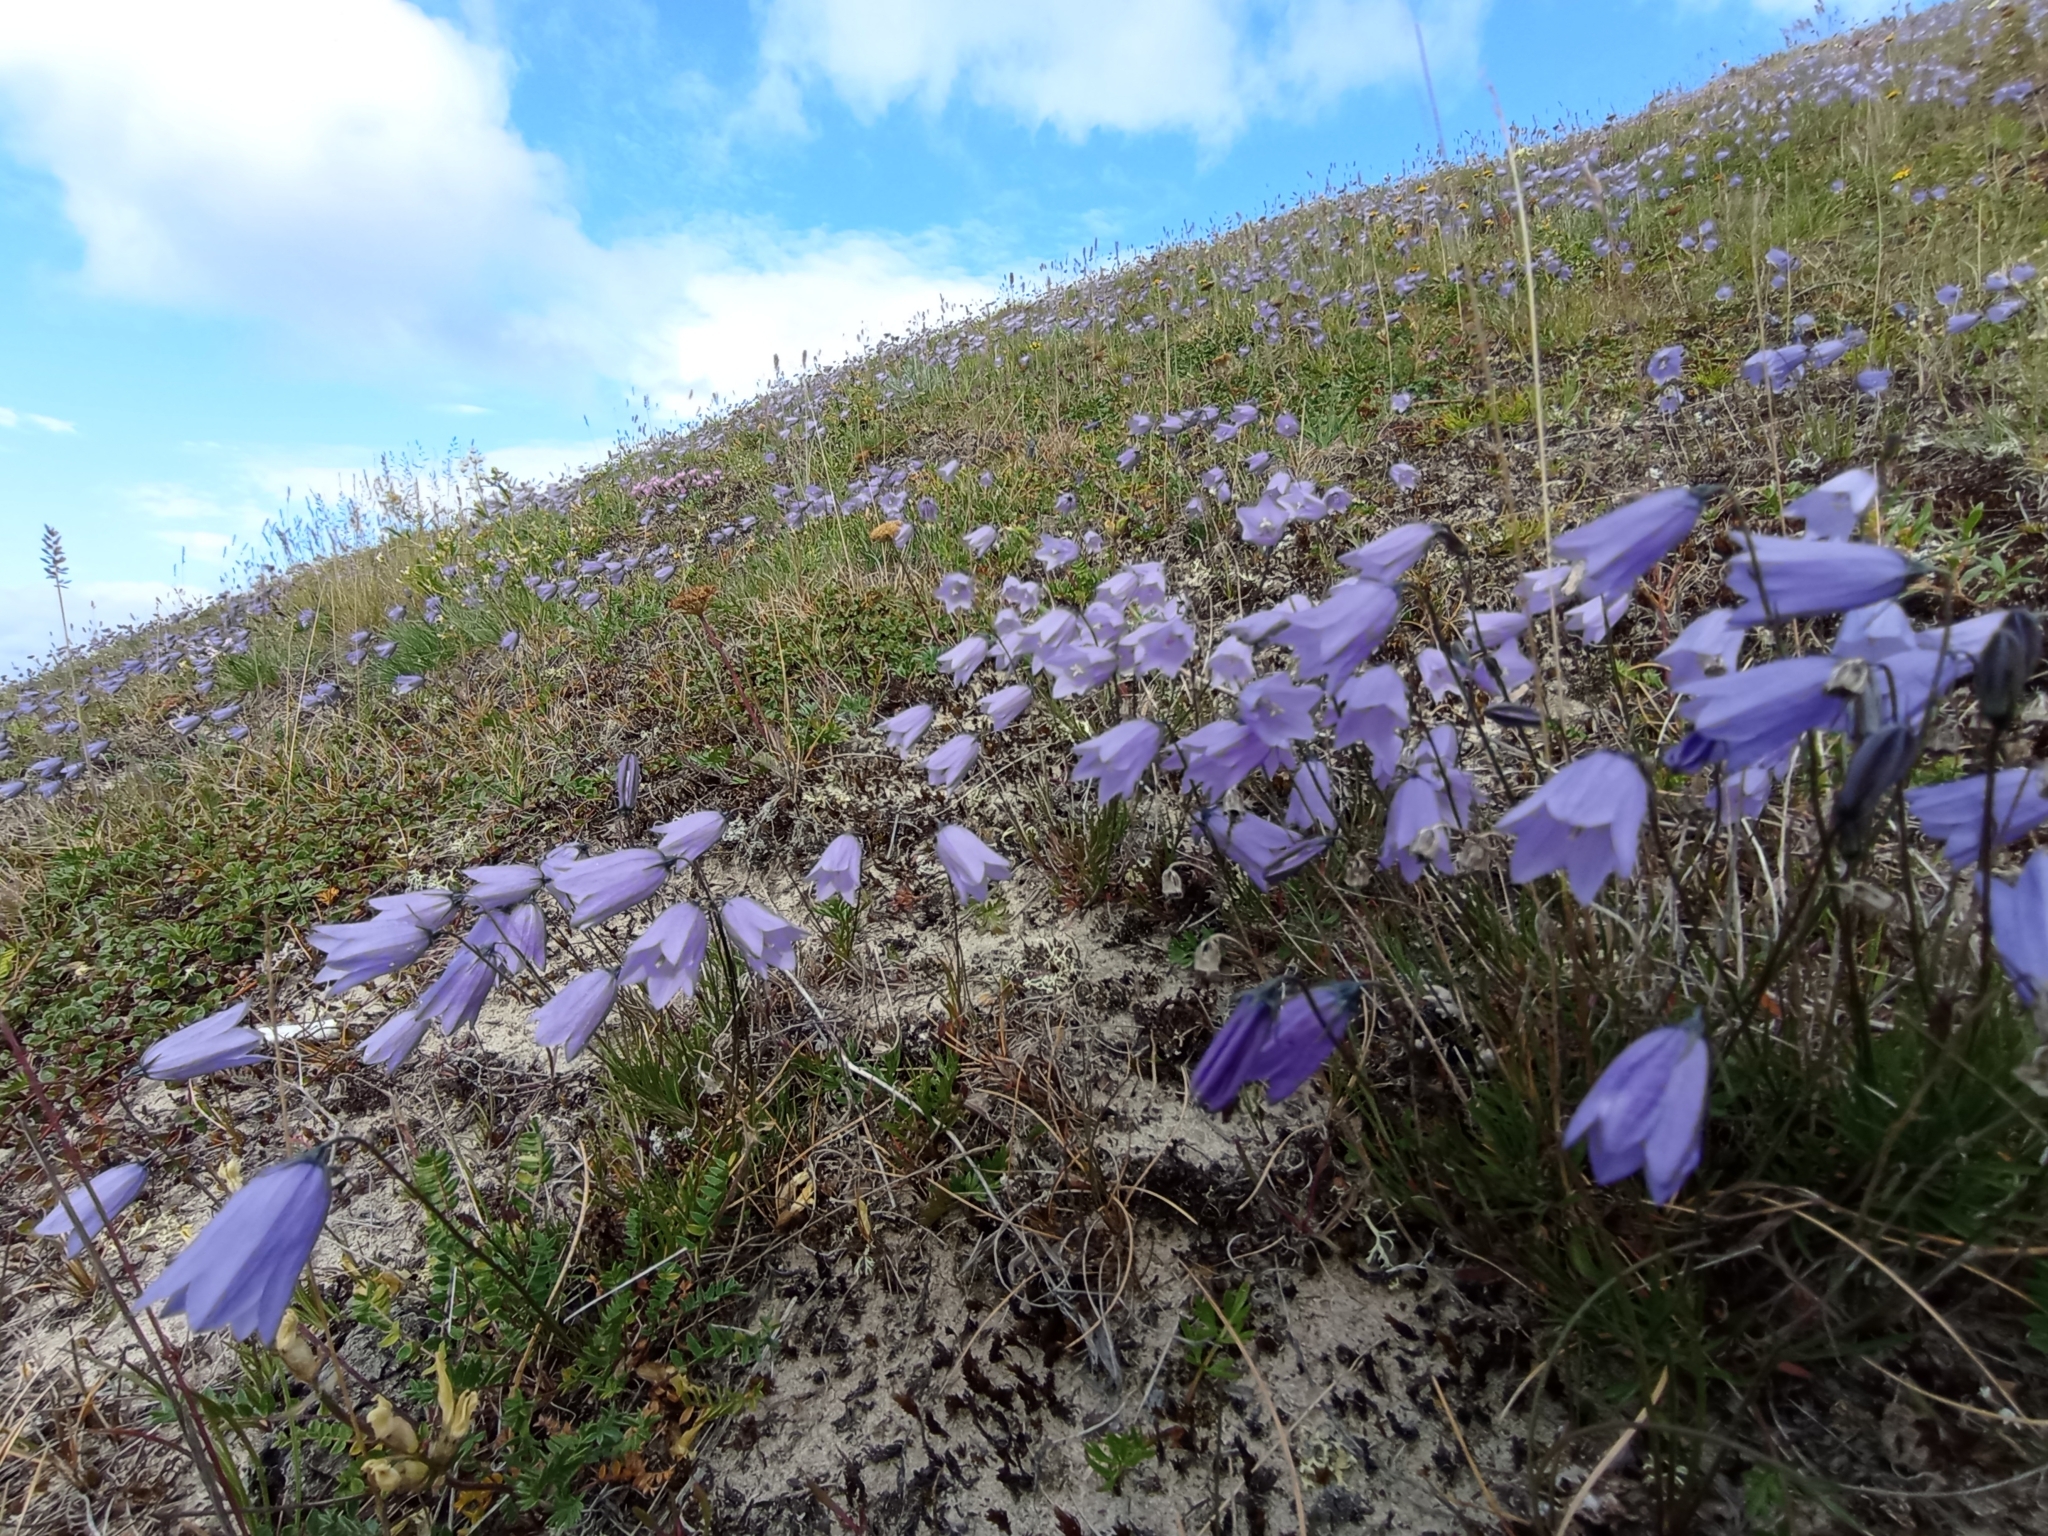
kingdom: Plantae
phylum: Tracheophyta
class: Magnoliopsida
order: Asterales
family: Campanulaceae
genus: Campanula
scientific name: Campanula rotundifolia
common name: Harebell
